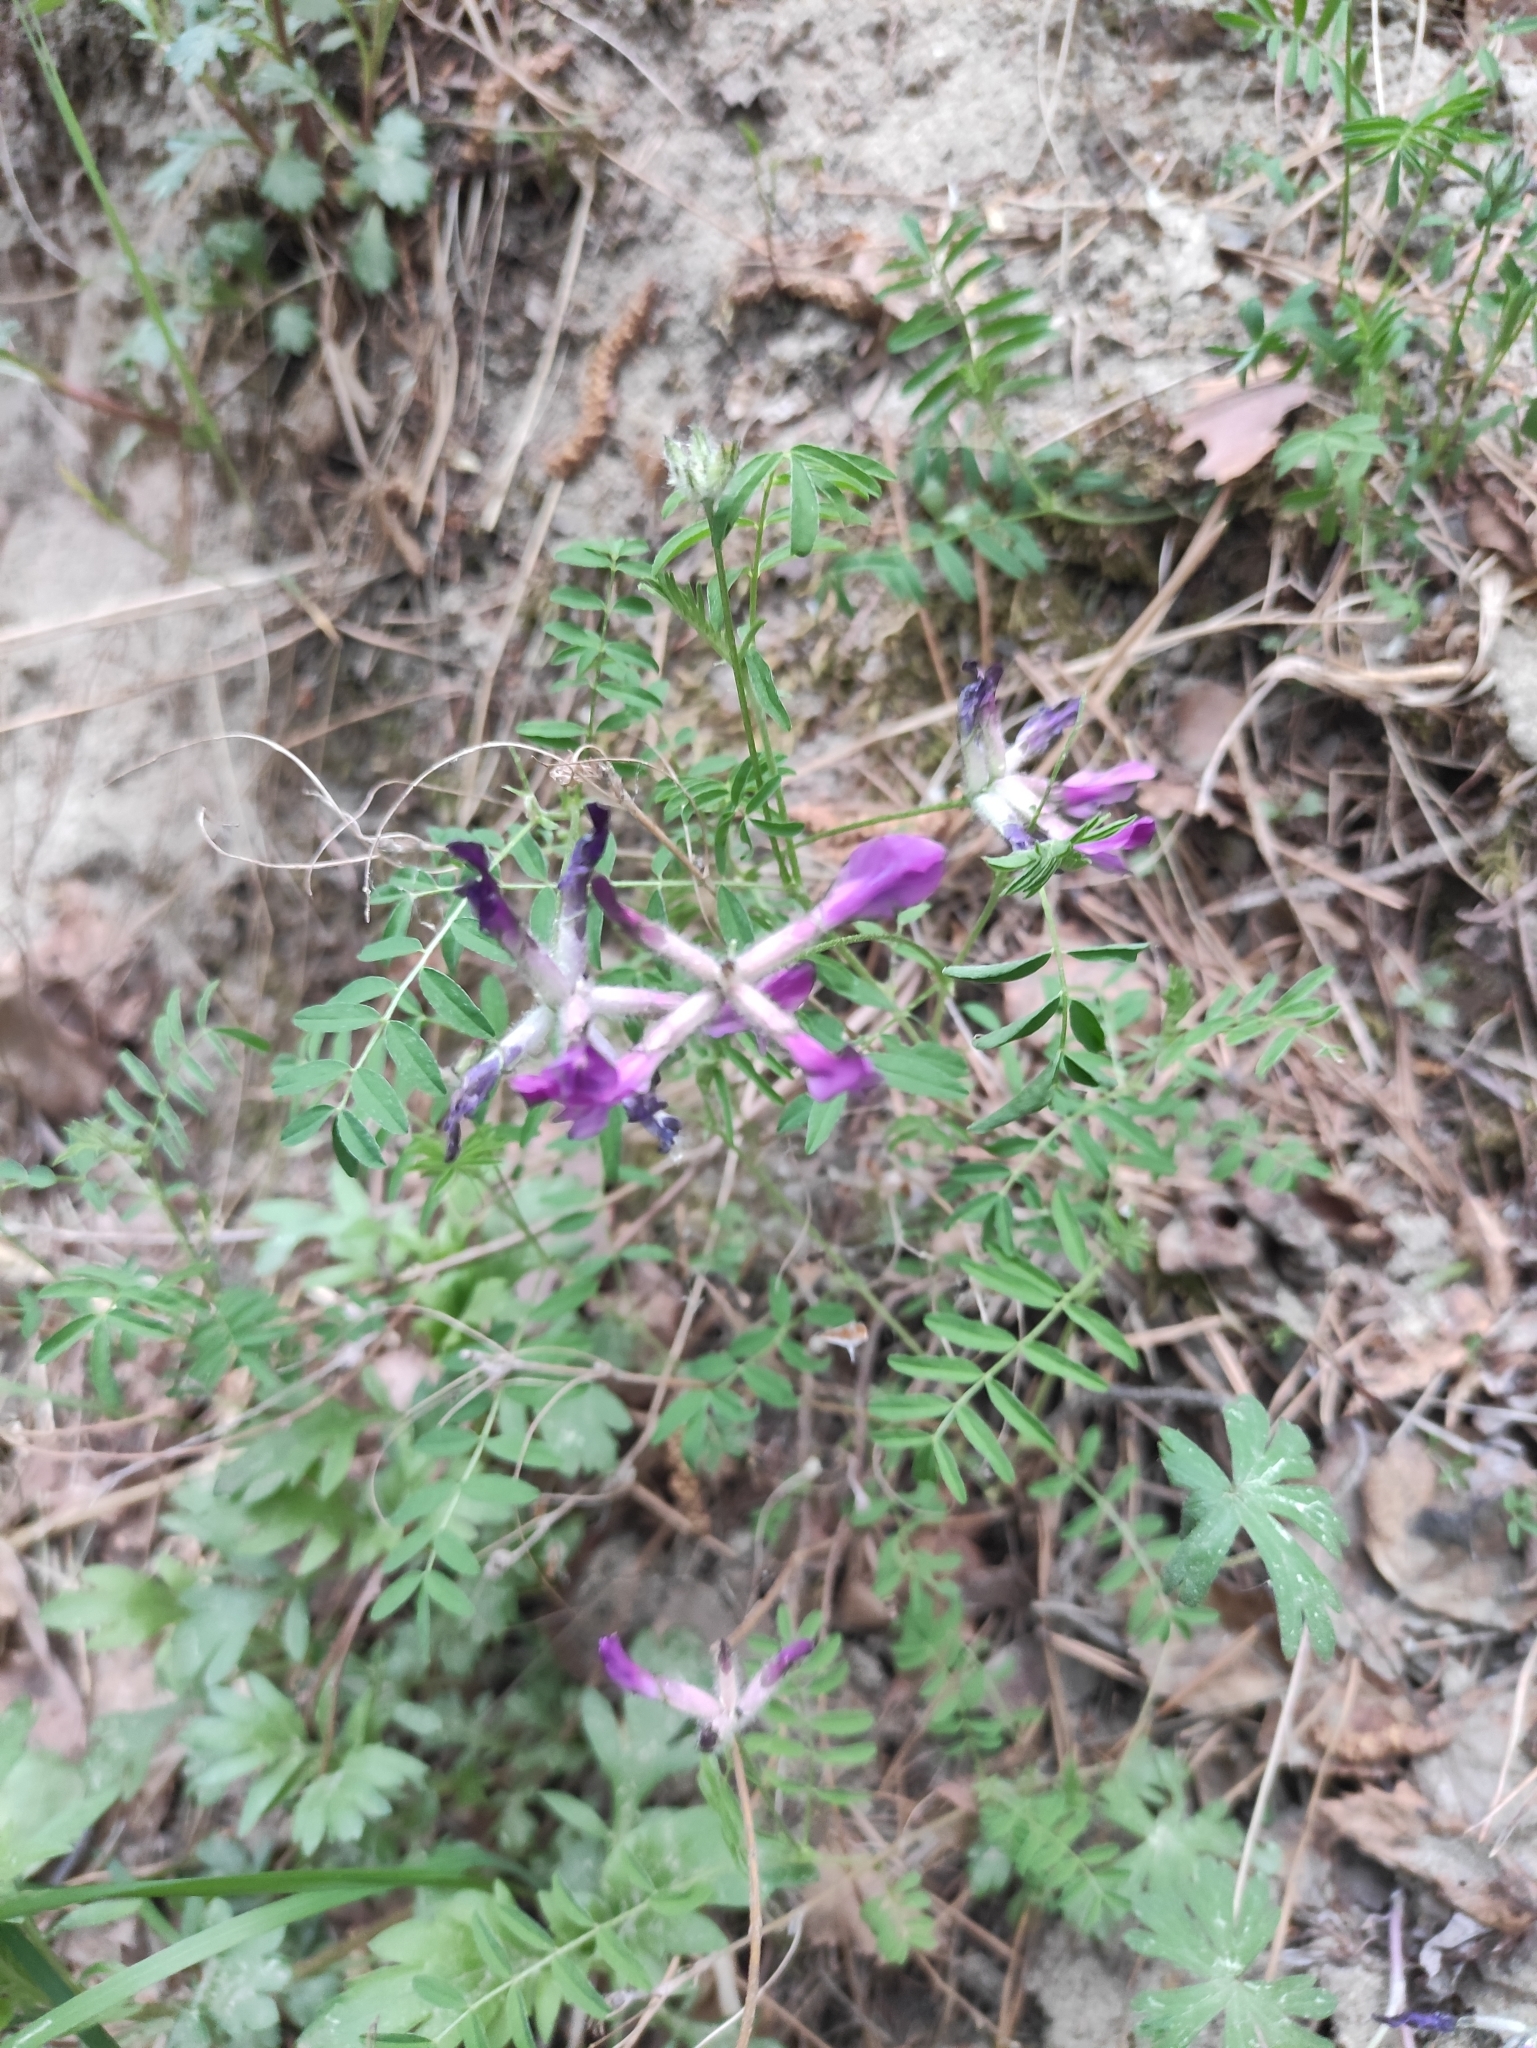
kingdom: Plantae
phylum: Tracheophyta
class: Magnoliopsida
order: Fabales
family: Fabaceae
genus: Astragalus
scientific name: Astragalus syriacus
